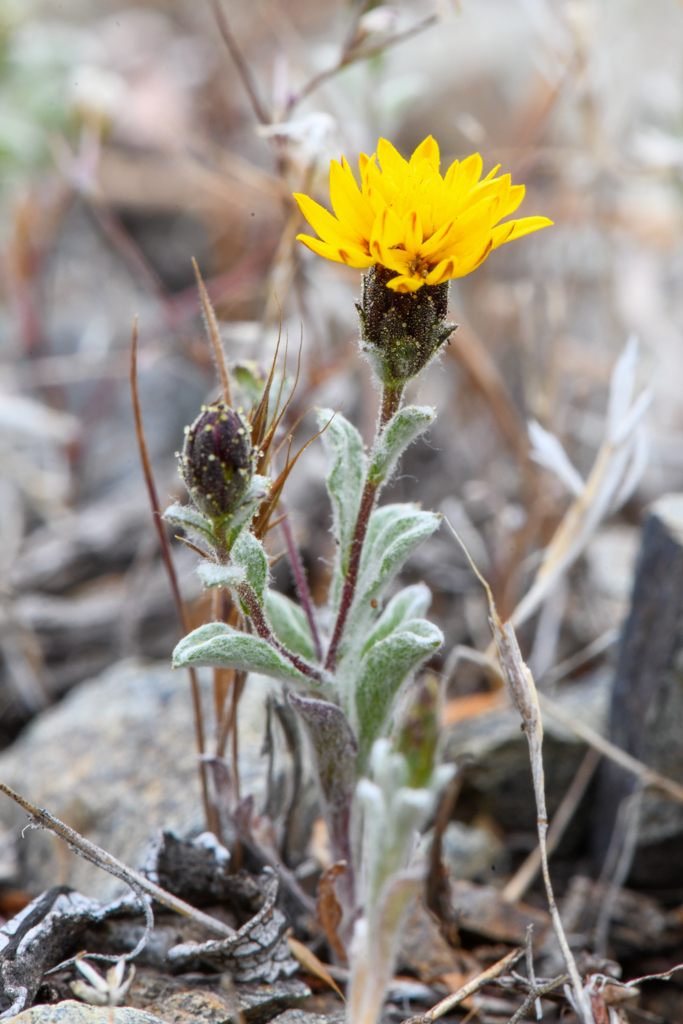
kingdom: Plantae
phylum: Tracheophyta
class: Magnoliopsida
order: Asterales
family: Asteraceae
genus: Lessingia
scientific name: Lessingia tenuis
